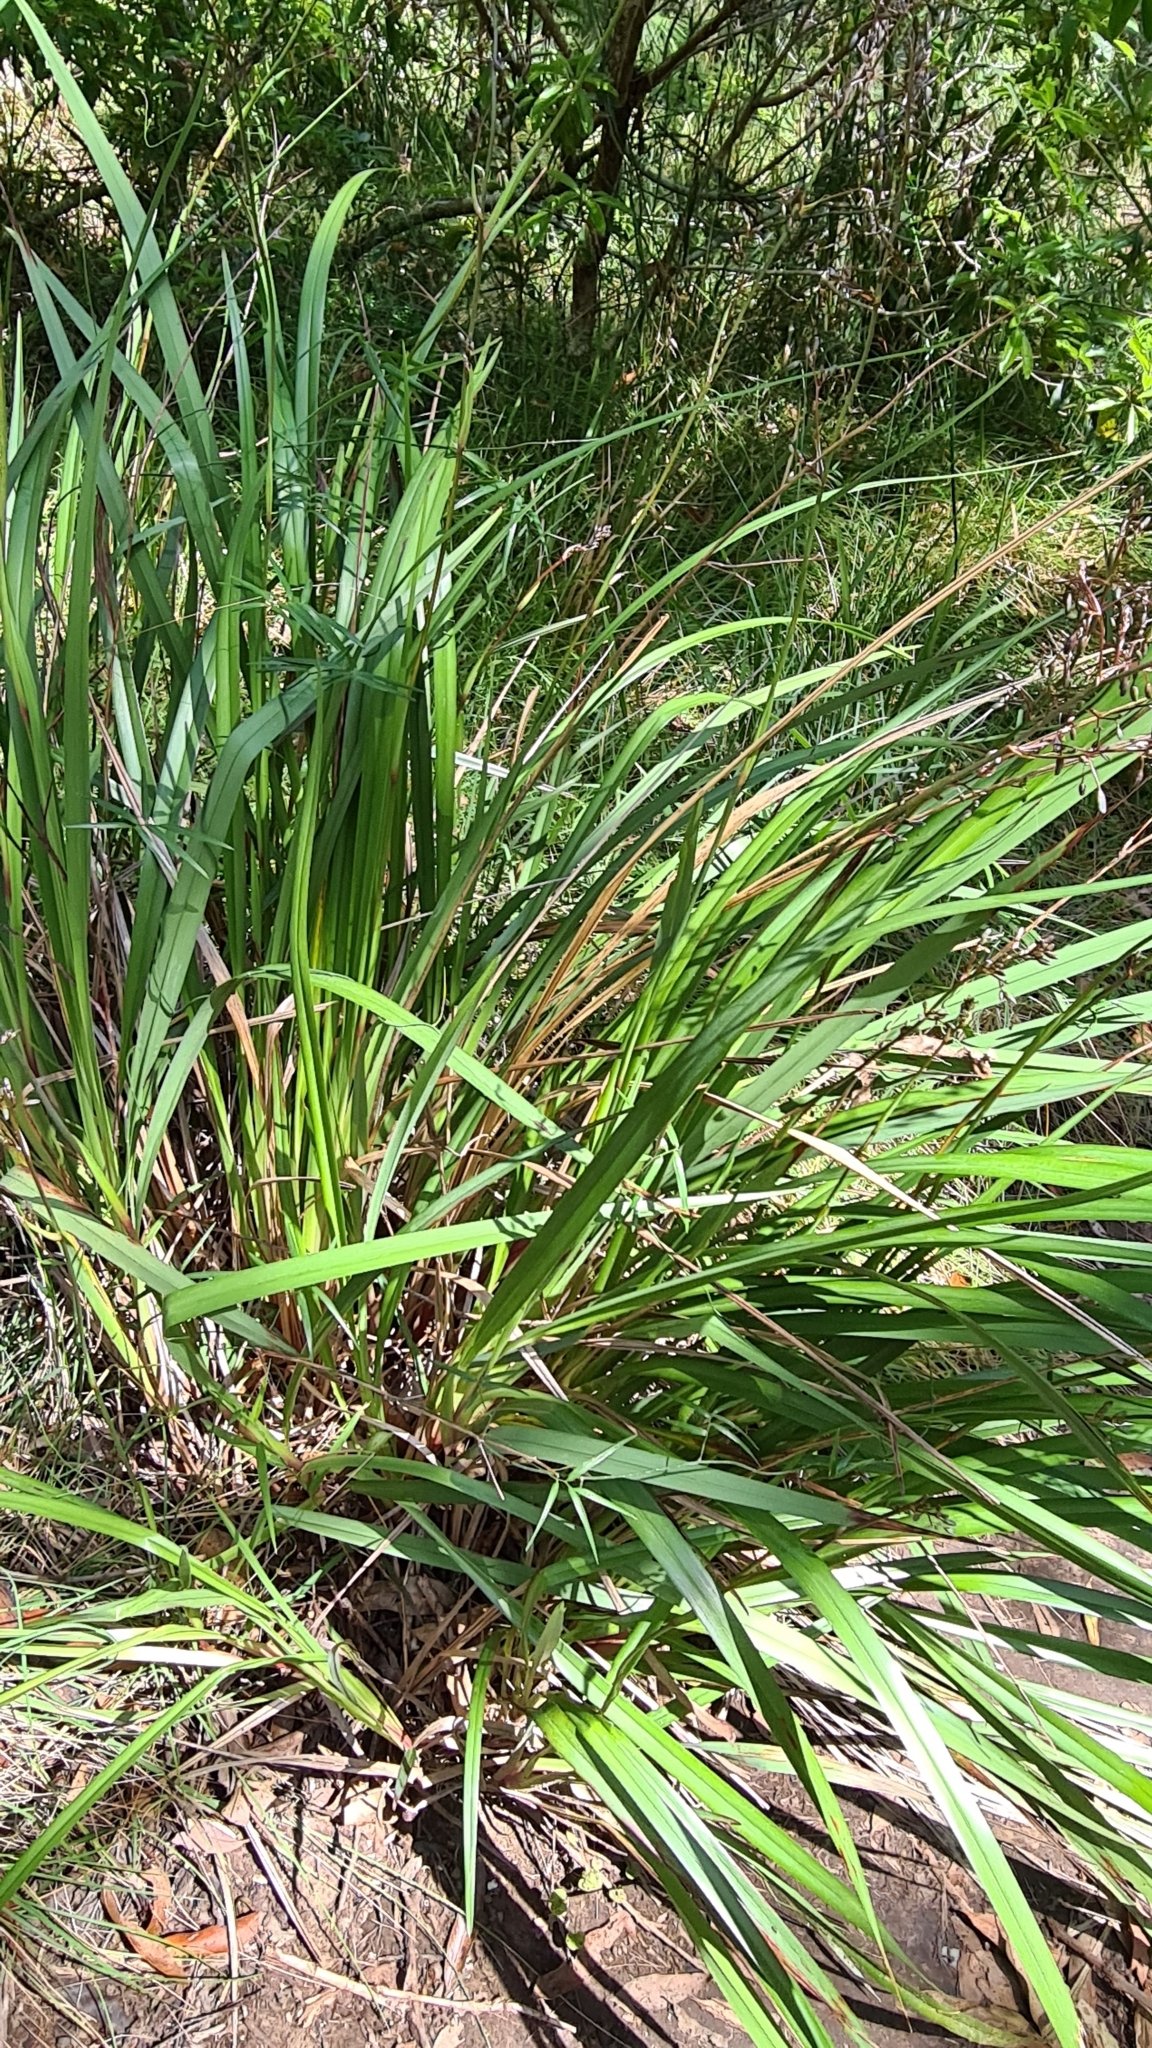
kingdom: Plantae
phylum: Tracheophyta
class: Liliopsida
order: Asparagales
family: Asphodelaceae
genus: Dianella
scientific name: Dianella longifolia
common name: Blue flax-lily
